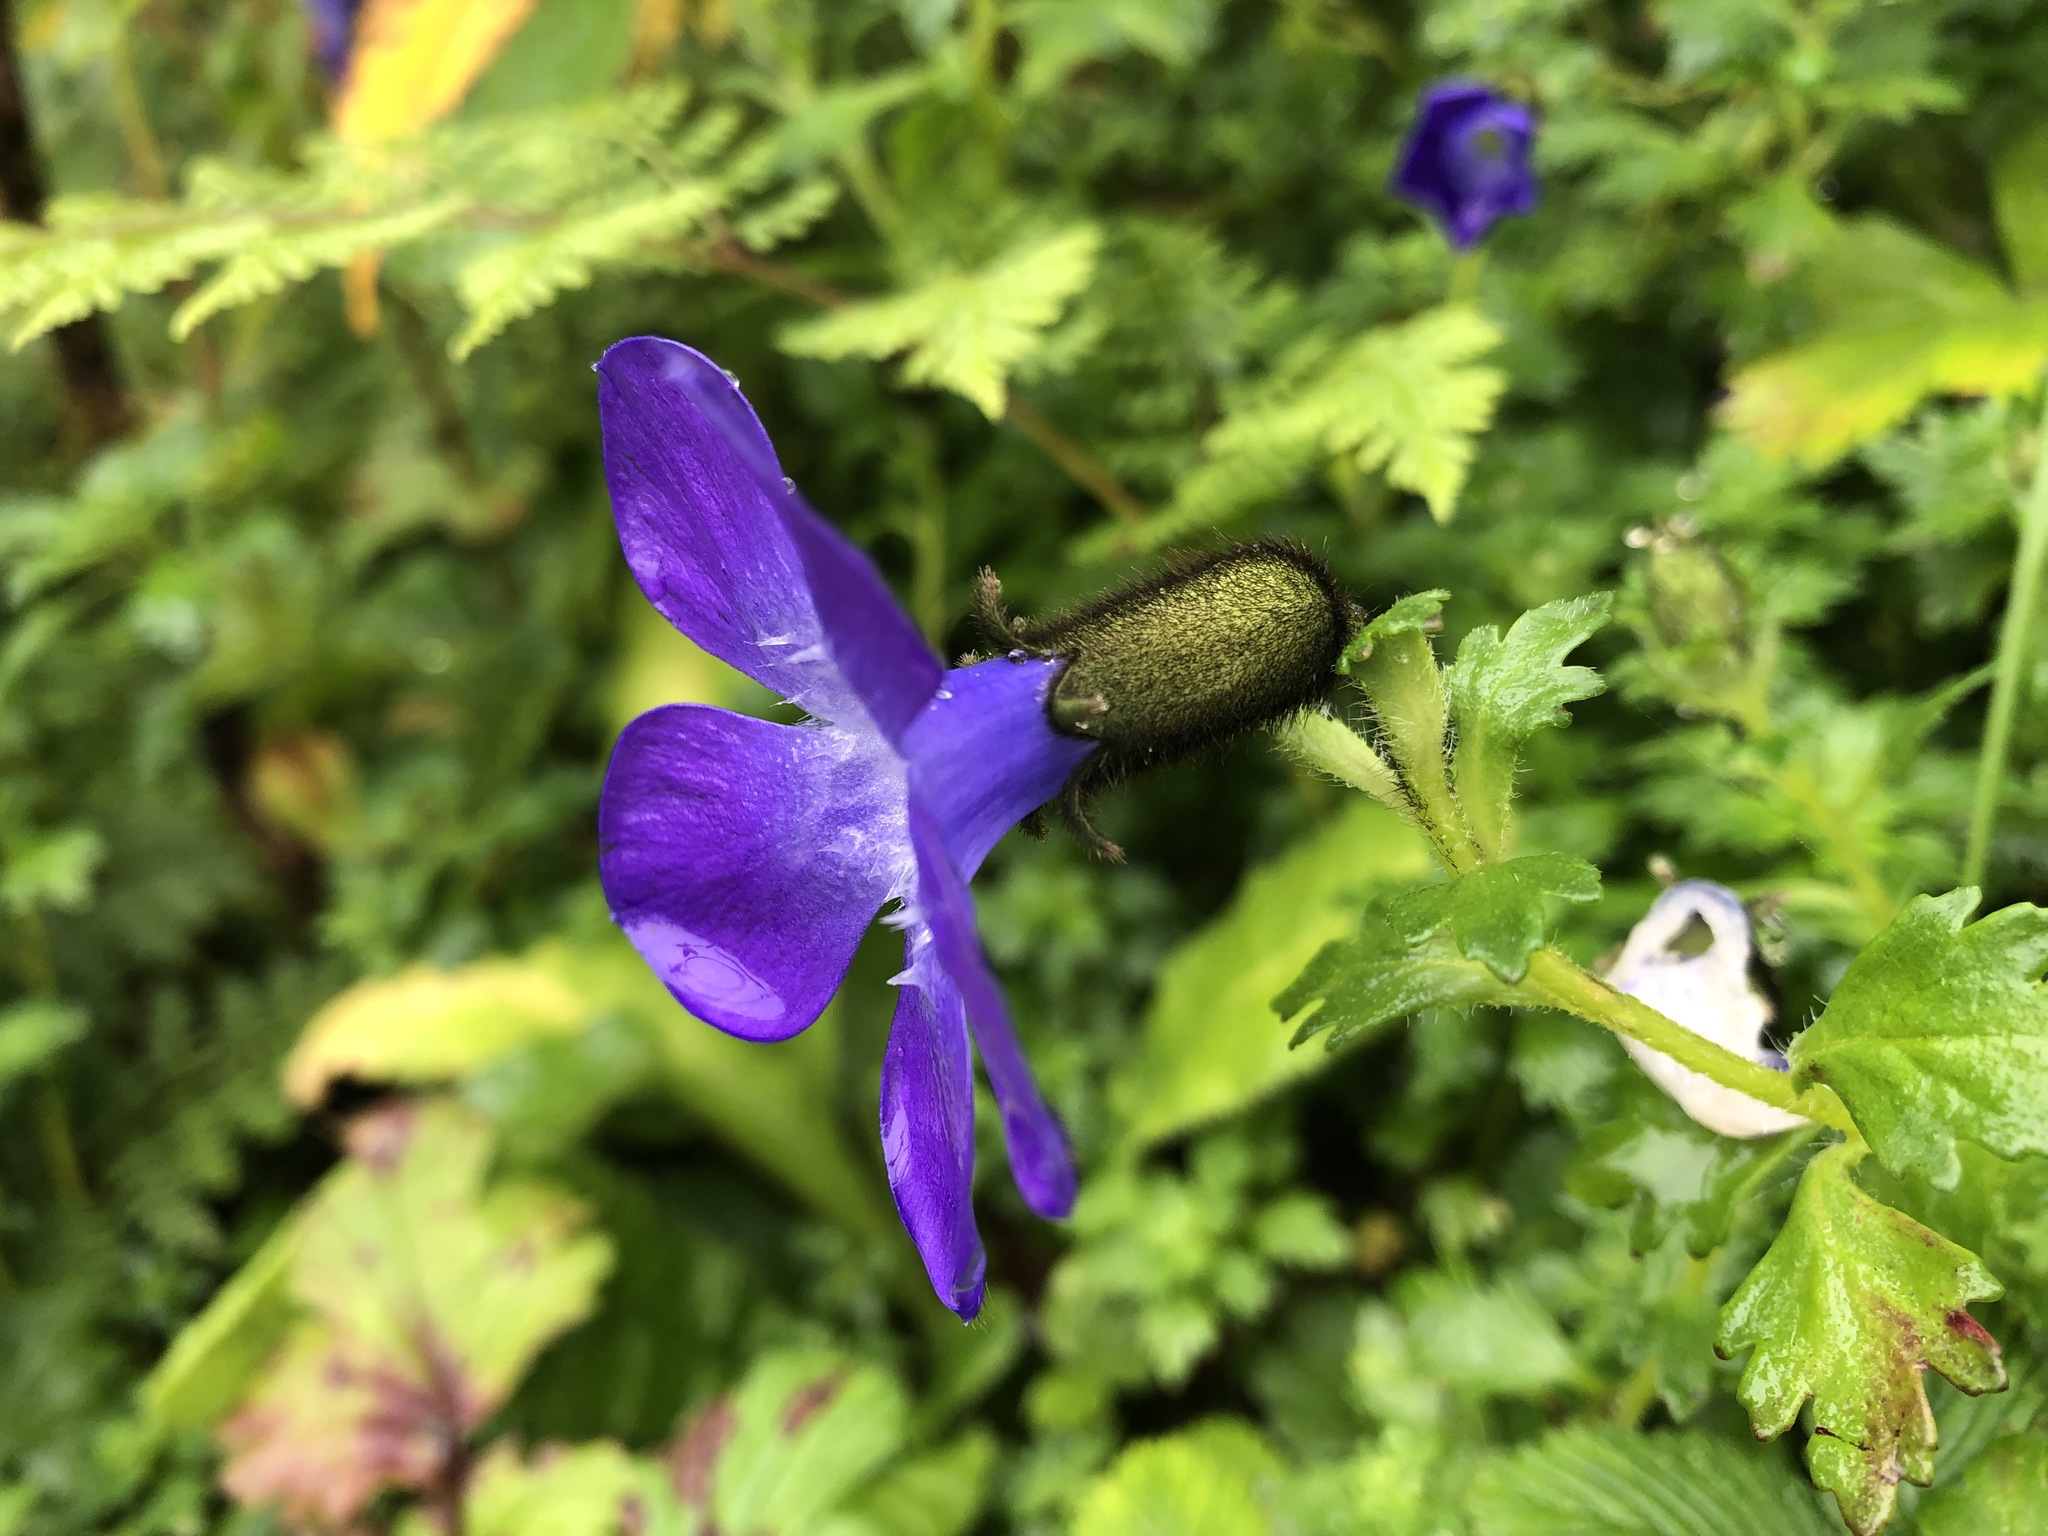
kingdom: Plantae
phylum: Tracheophyta
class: Magnoliopsida
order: Asterales
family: Campanulaceae
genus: Cyananthus
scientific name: Cyananthus lobatus
